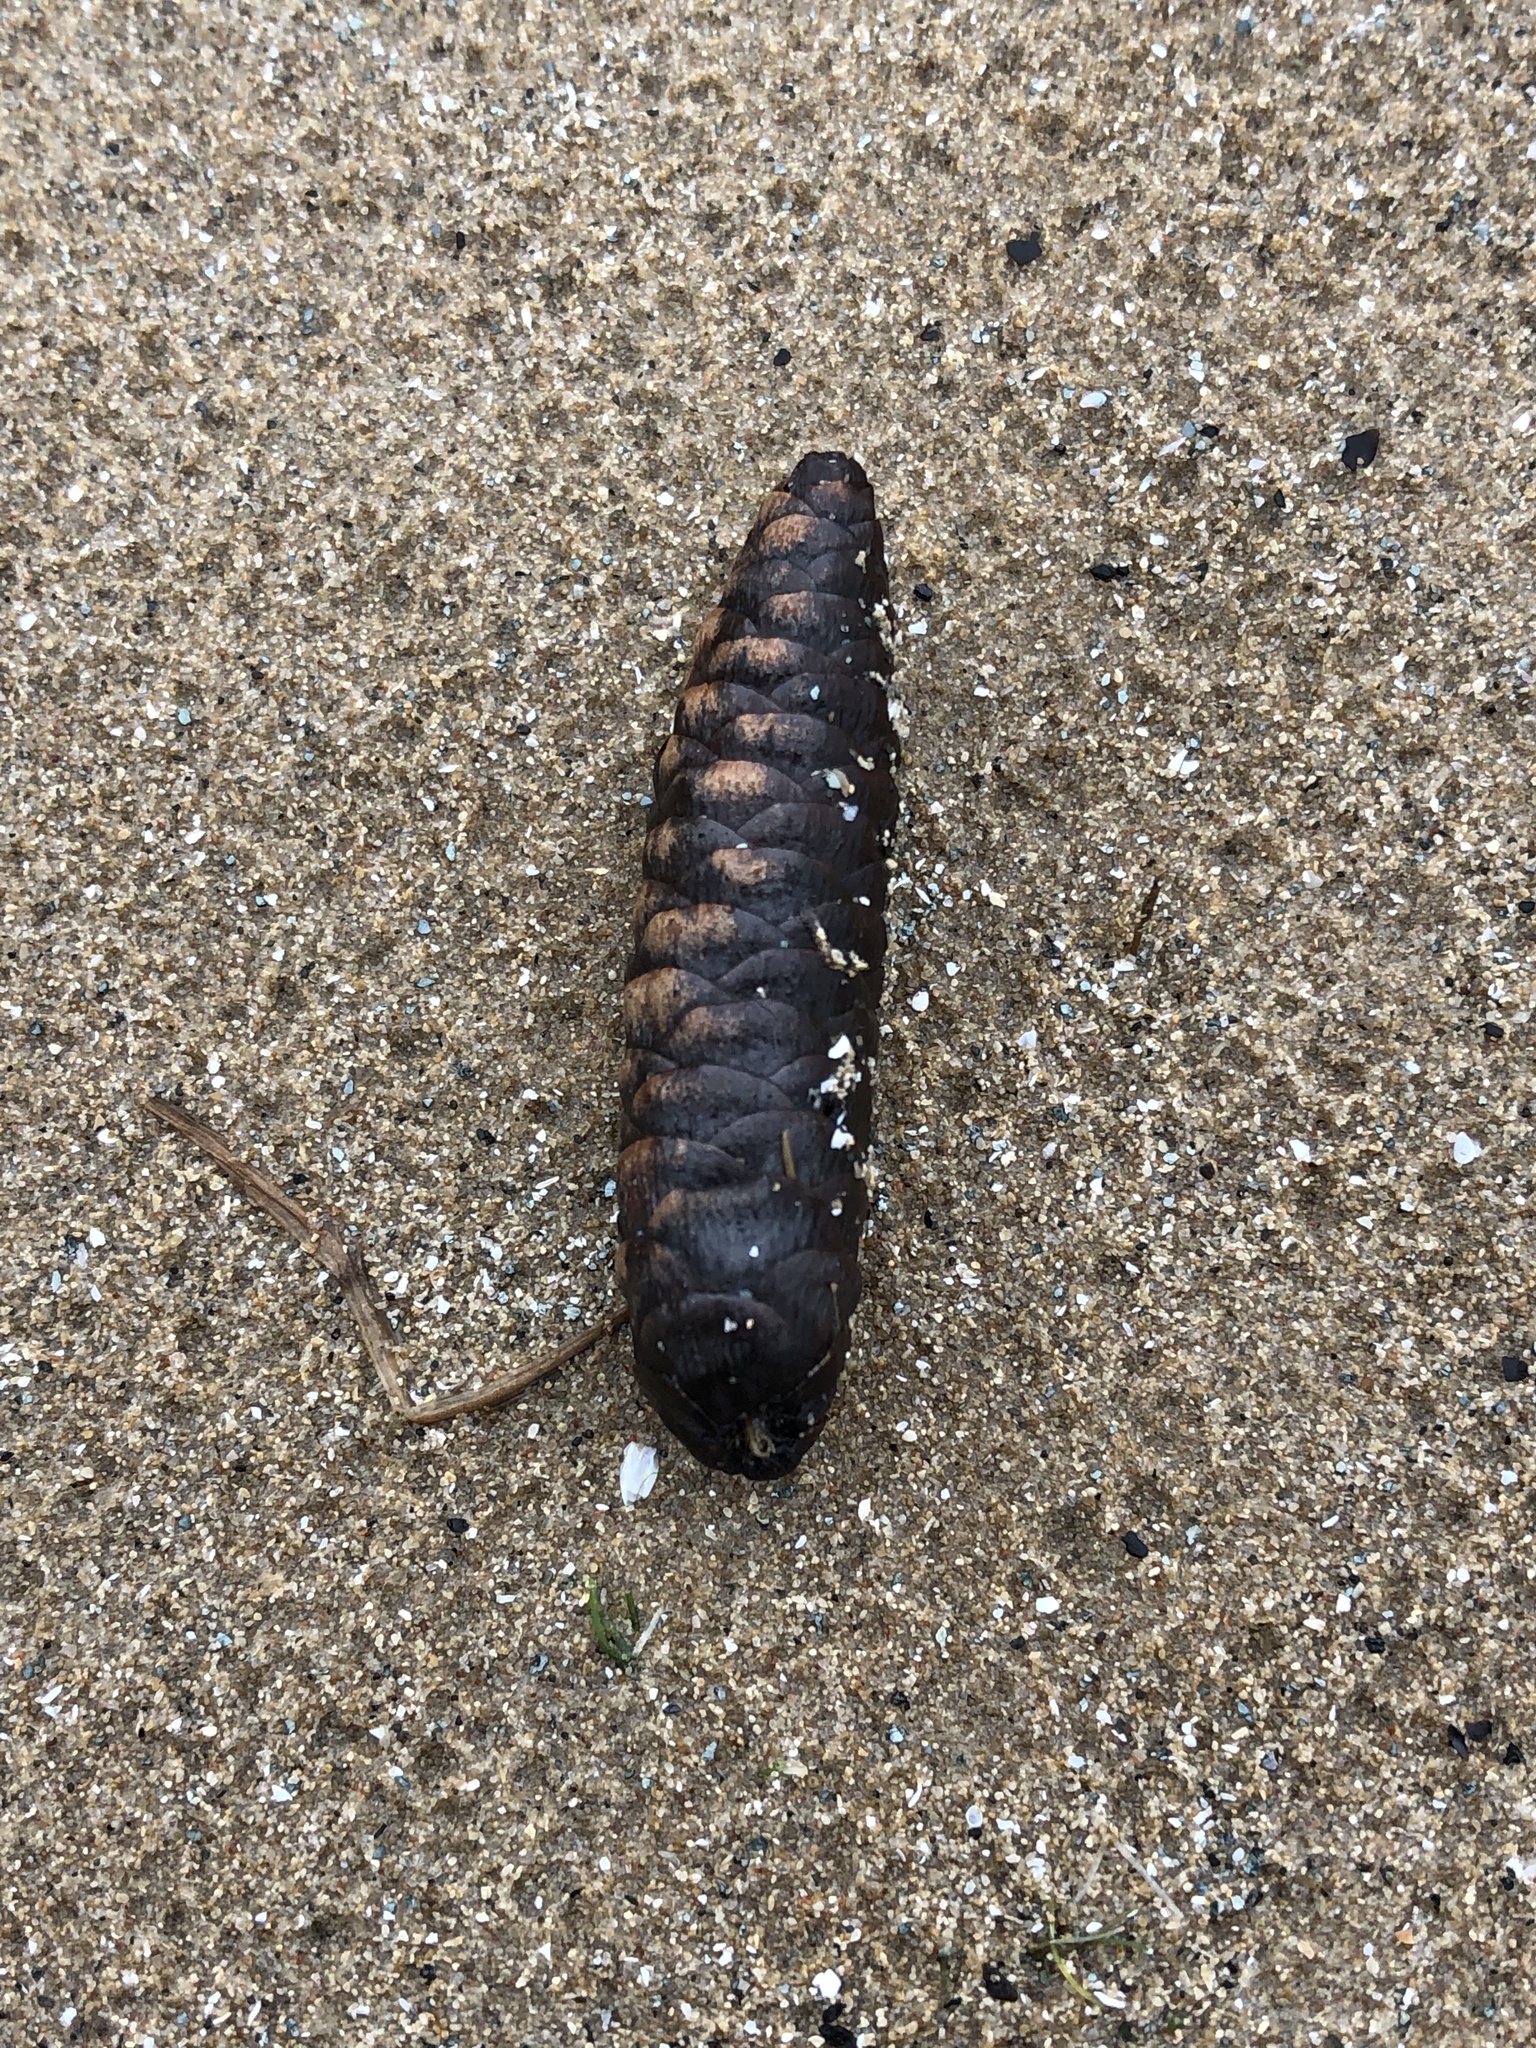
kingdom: Plantae
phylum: Tracheophyta
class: Pinopsida
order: Pinales
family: Pinaceae
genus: Picea
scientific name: Picea glauca
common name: White spruce
